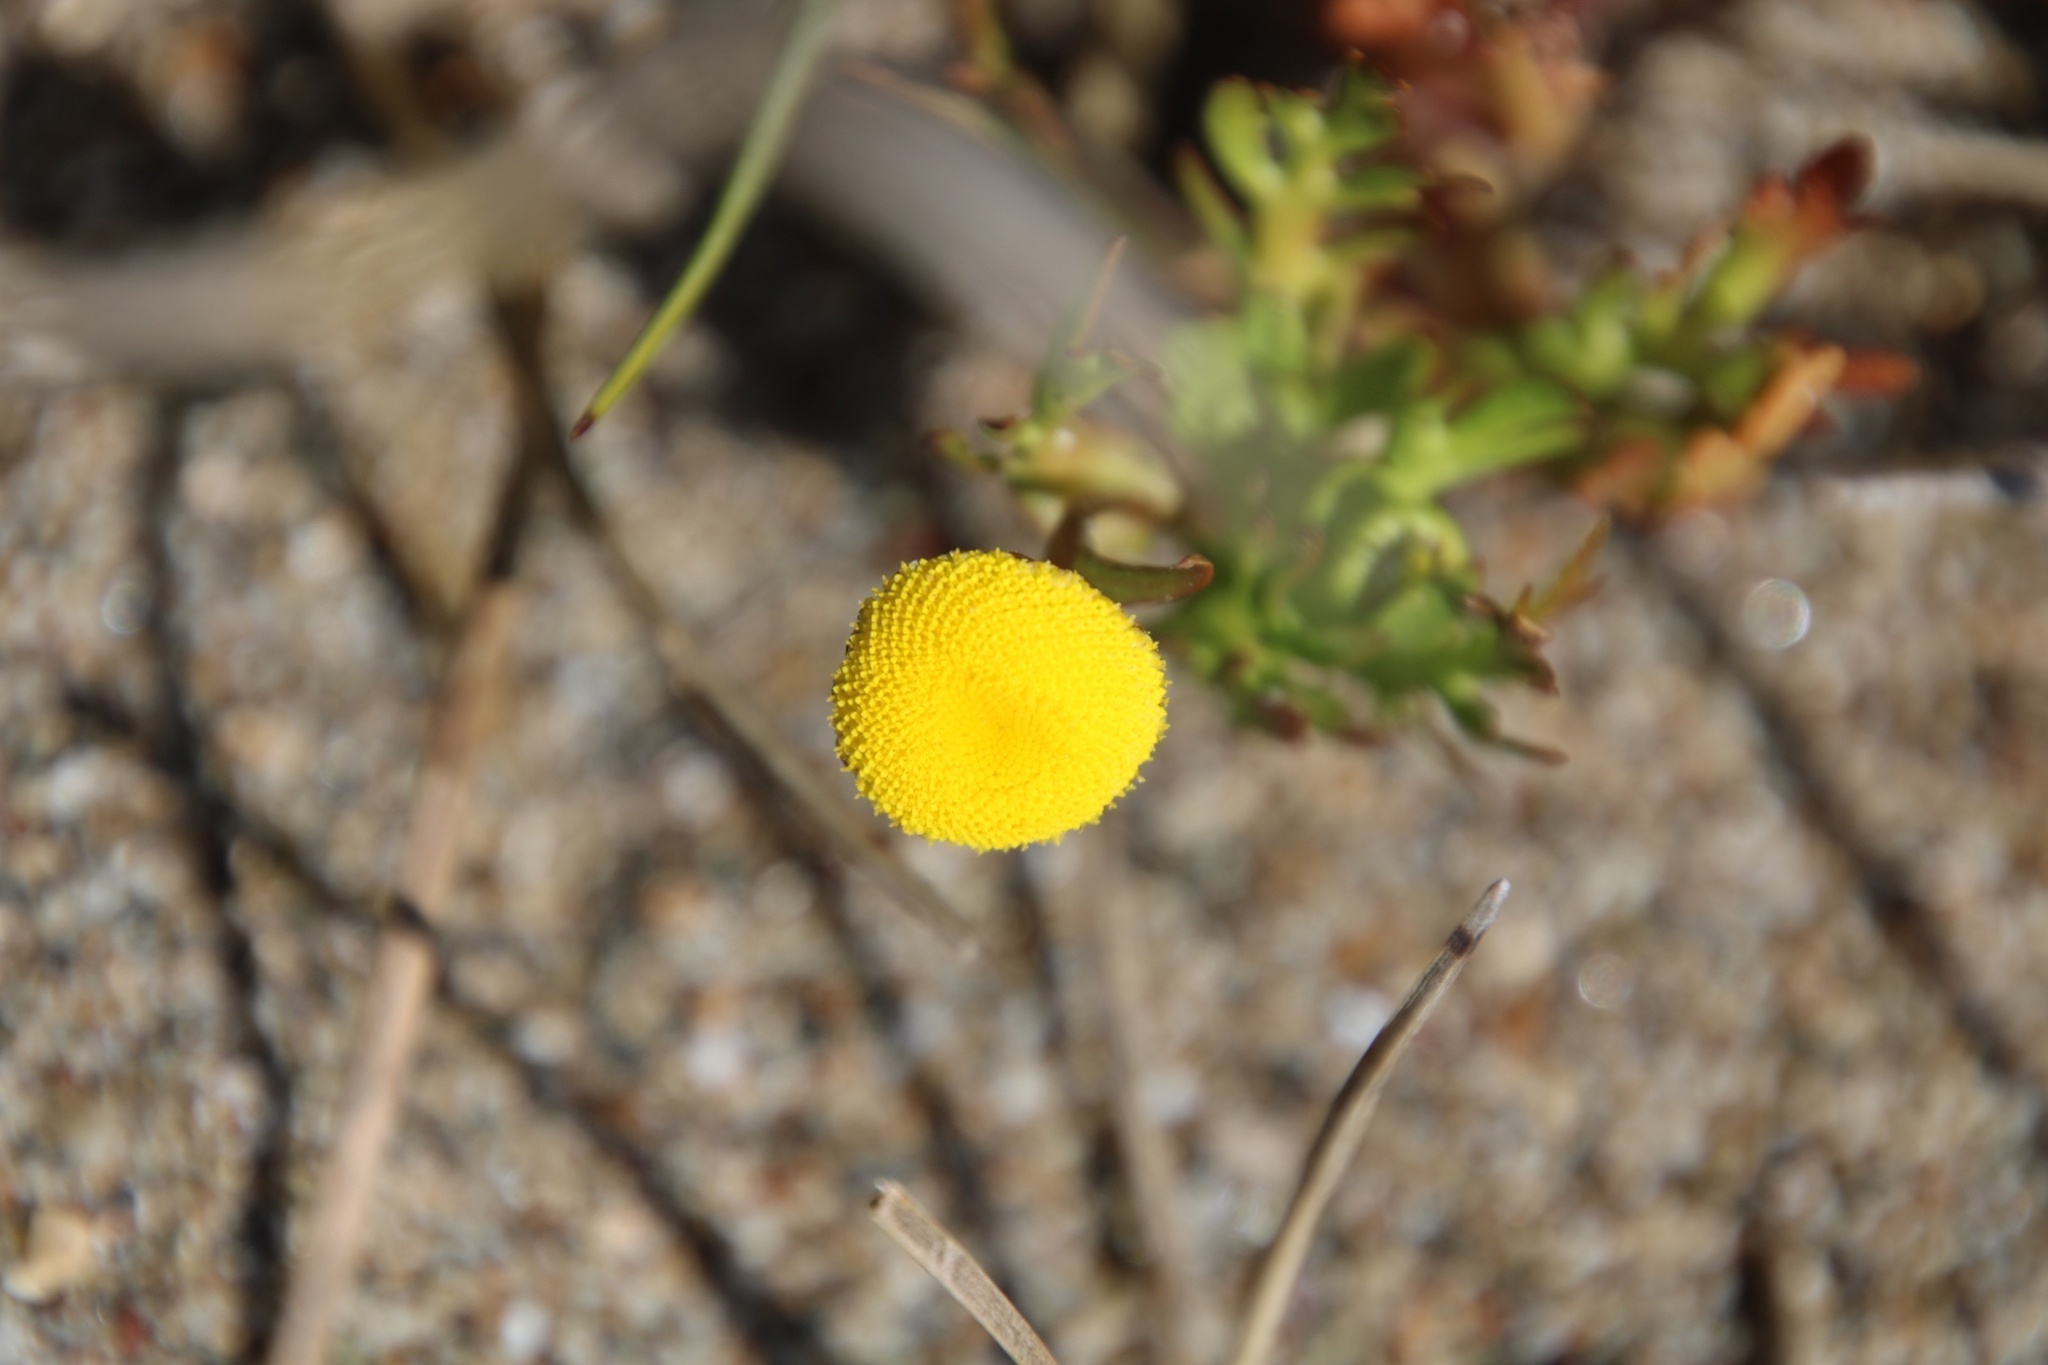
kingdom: Plantae
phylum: Tracheophyta
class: Magnoliopsida
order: Asterales
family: Asteraceae
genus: Cotula
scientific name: Cotula coronopifolia
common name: Buttonweed
